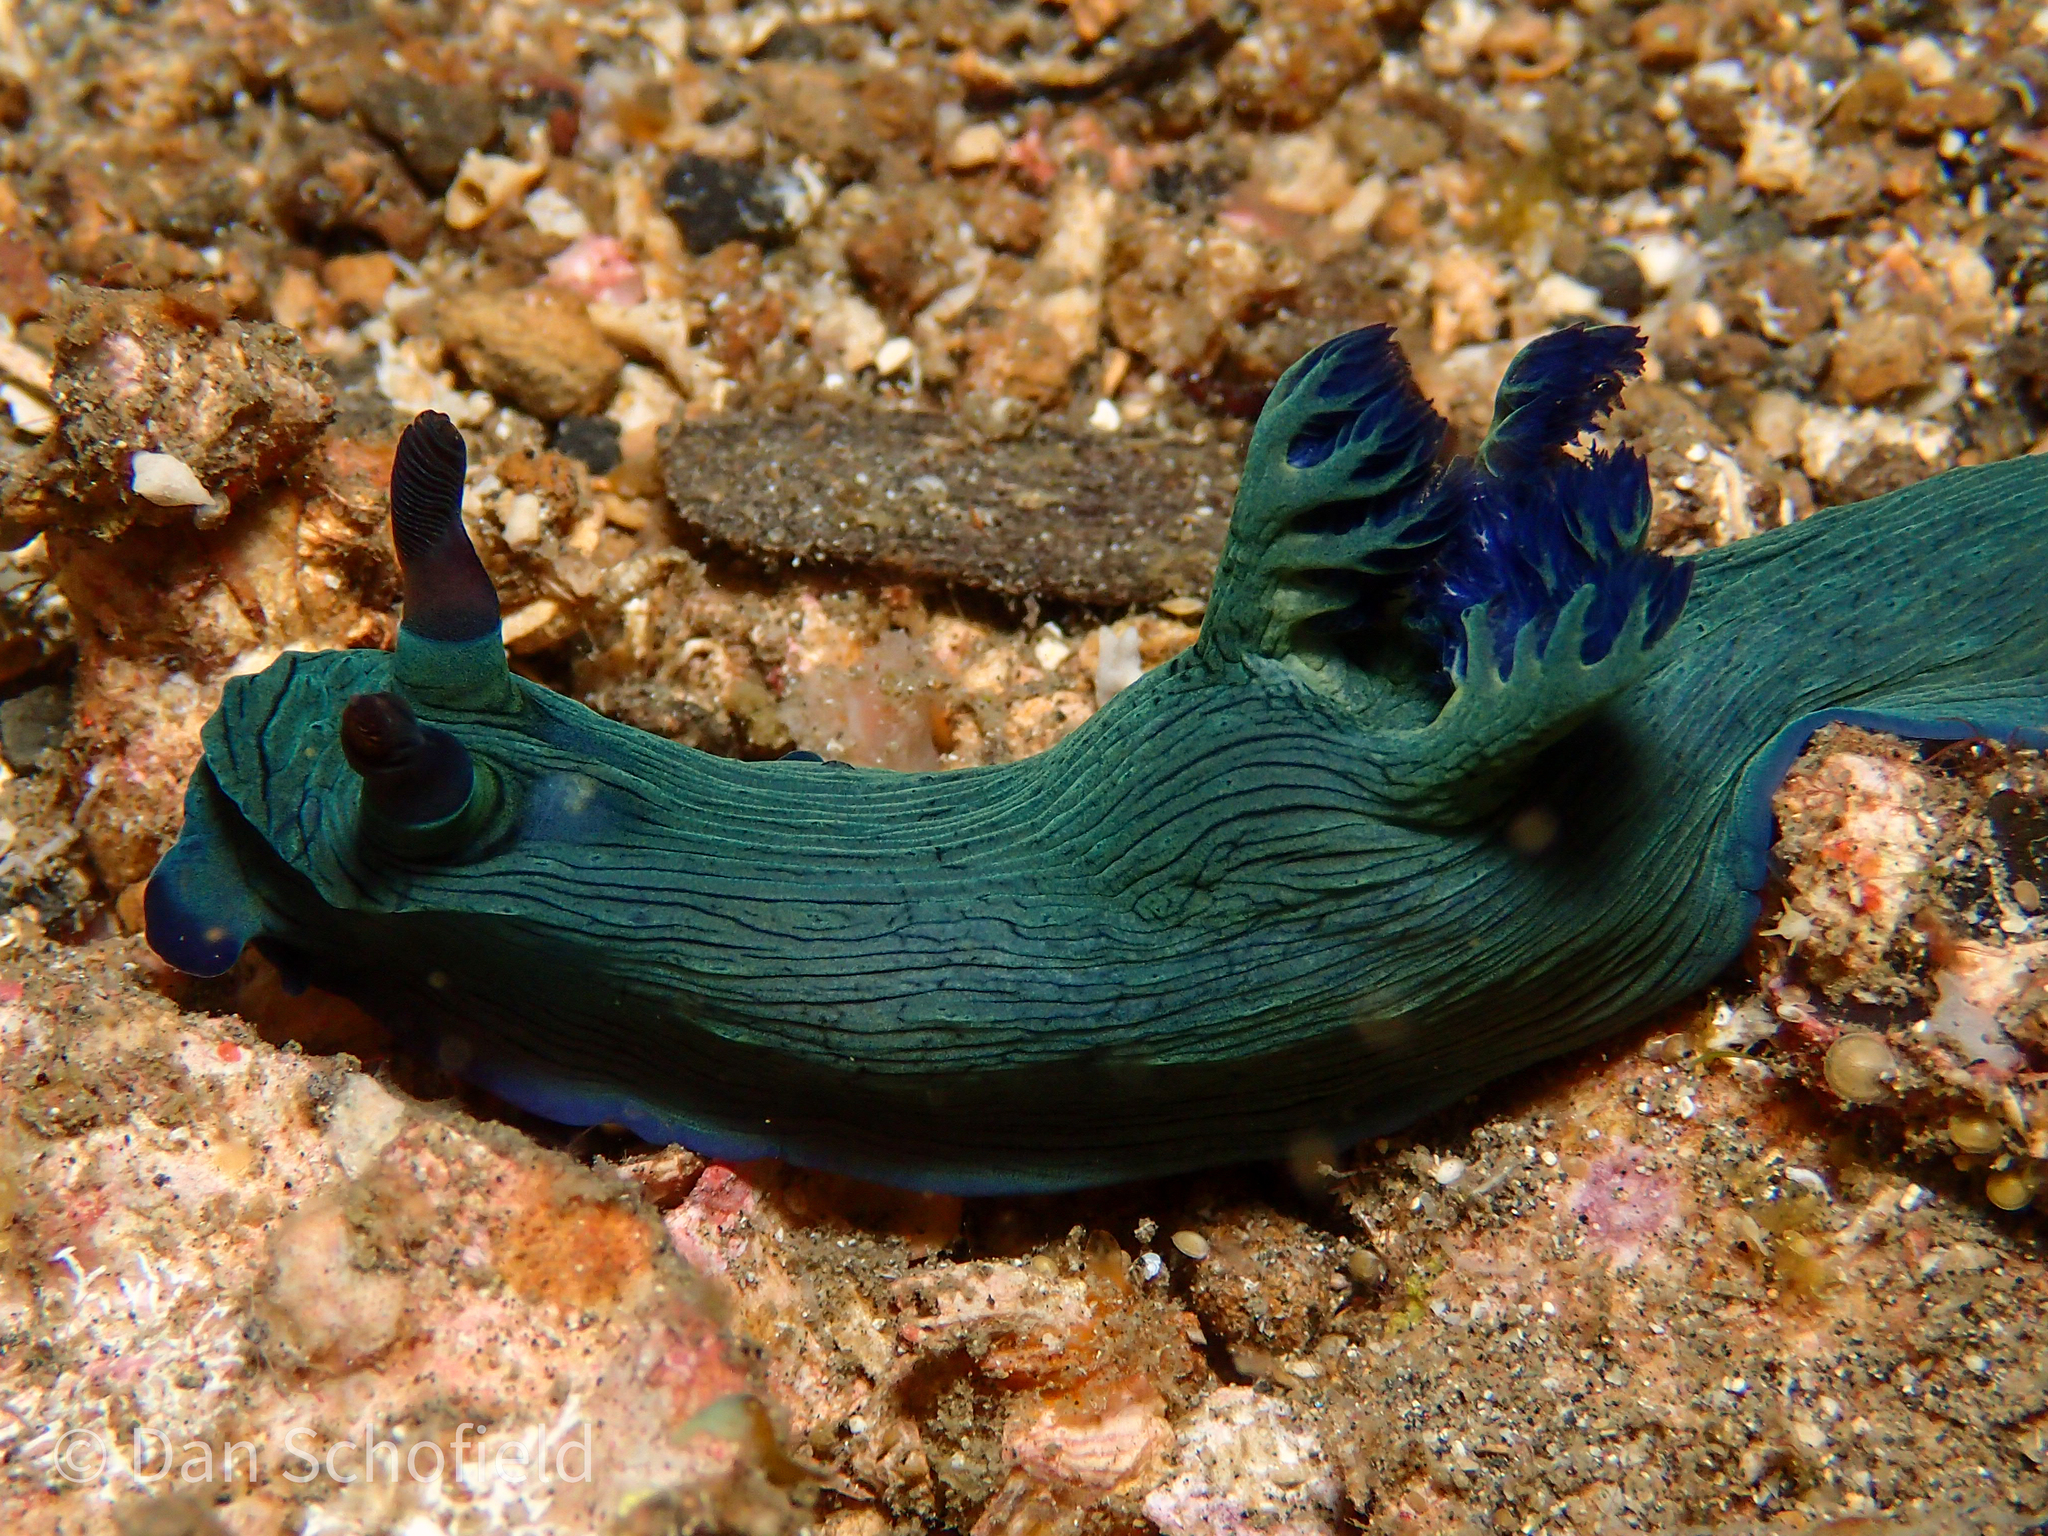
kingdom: Animalia
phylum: Mollusca
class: Gastropoda
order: Nudibranchia
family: Polyceridae
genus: Nembrotha
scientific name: Nembrotha milleri
